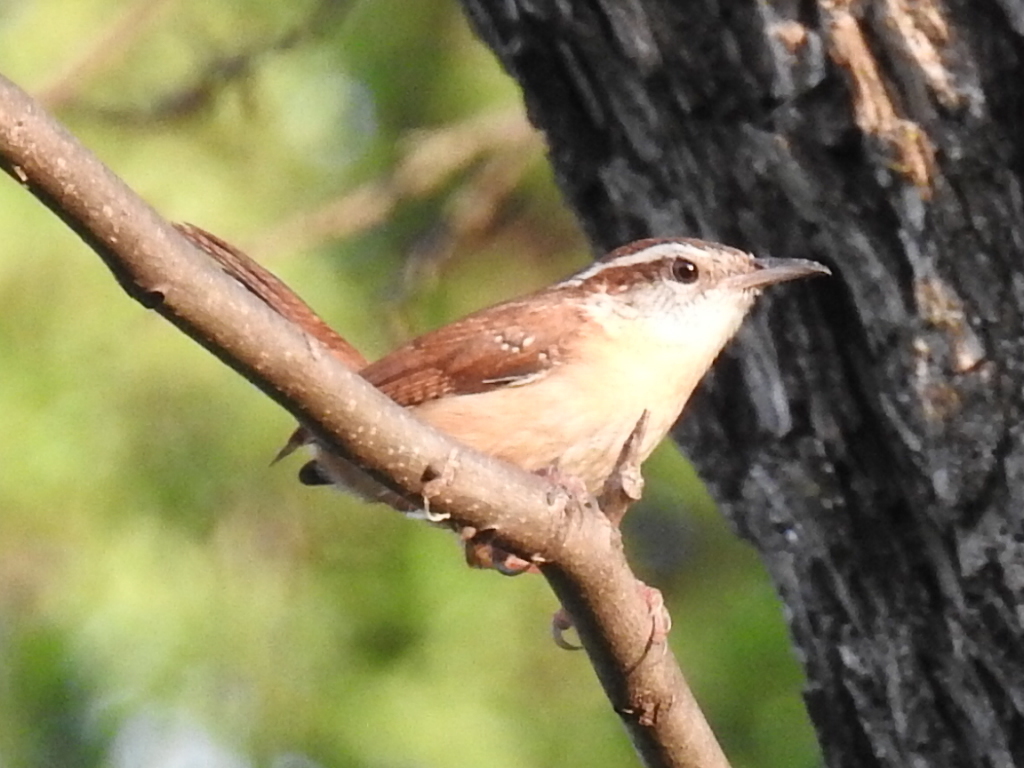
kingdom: Animalia
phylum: Chordata
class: Aves
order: Passeriformes
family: Troglodytidae
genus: Thryothorus
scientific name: Thryothorus ludovicianus
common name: Carolina wren
